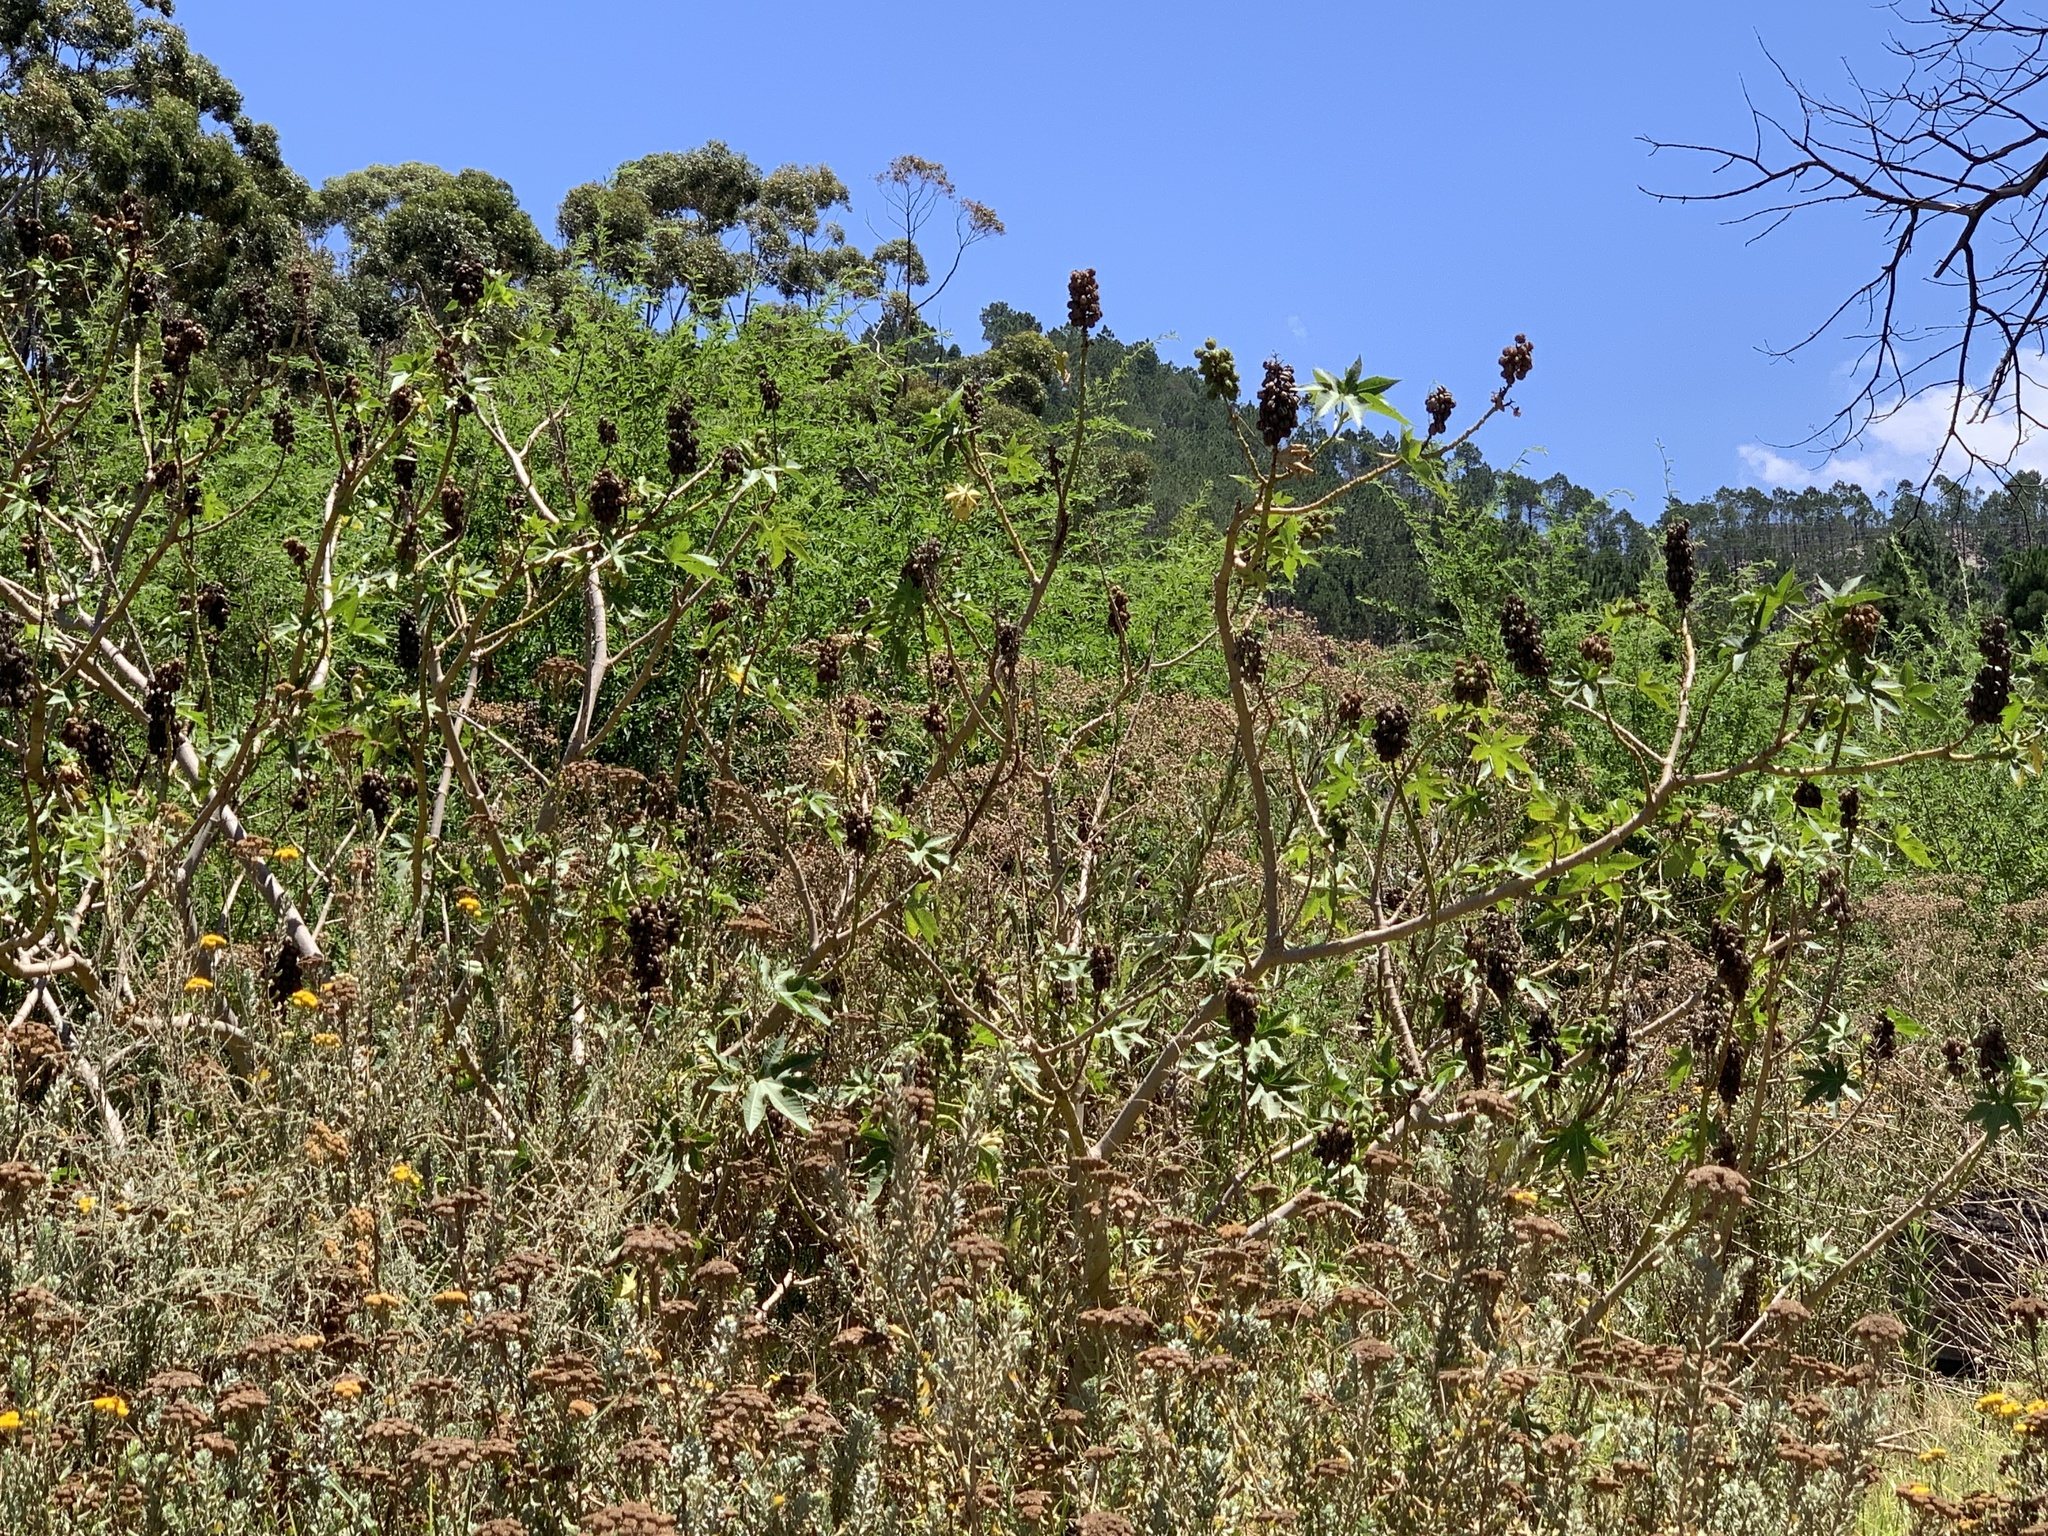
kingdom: Plantae
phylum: Tracheophyta
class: Magnoliopsida
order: Malpighiales
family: Euphorbiaceae
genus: Ricinus
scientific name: Ricinus communis
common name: Castor-oil-plant
